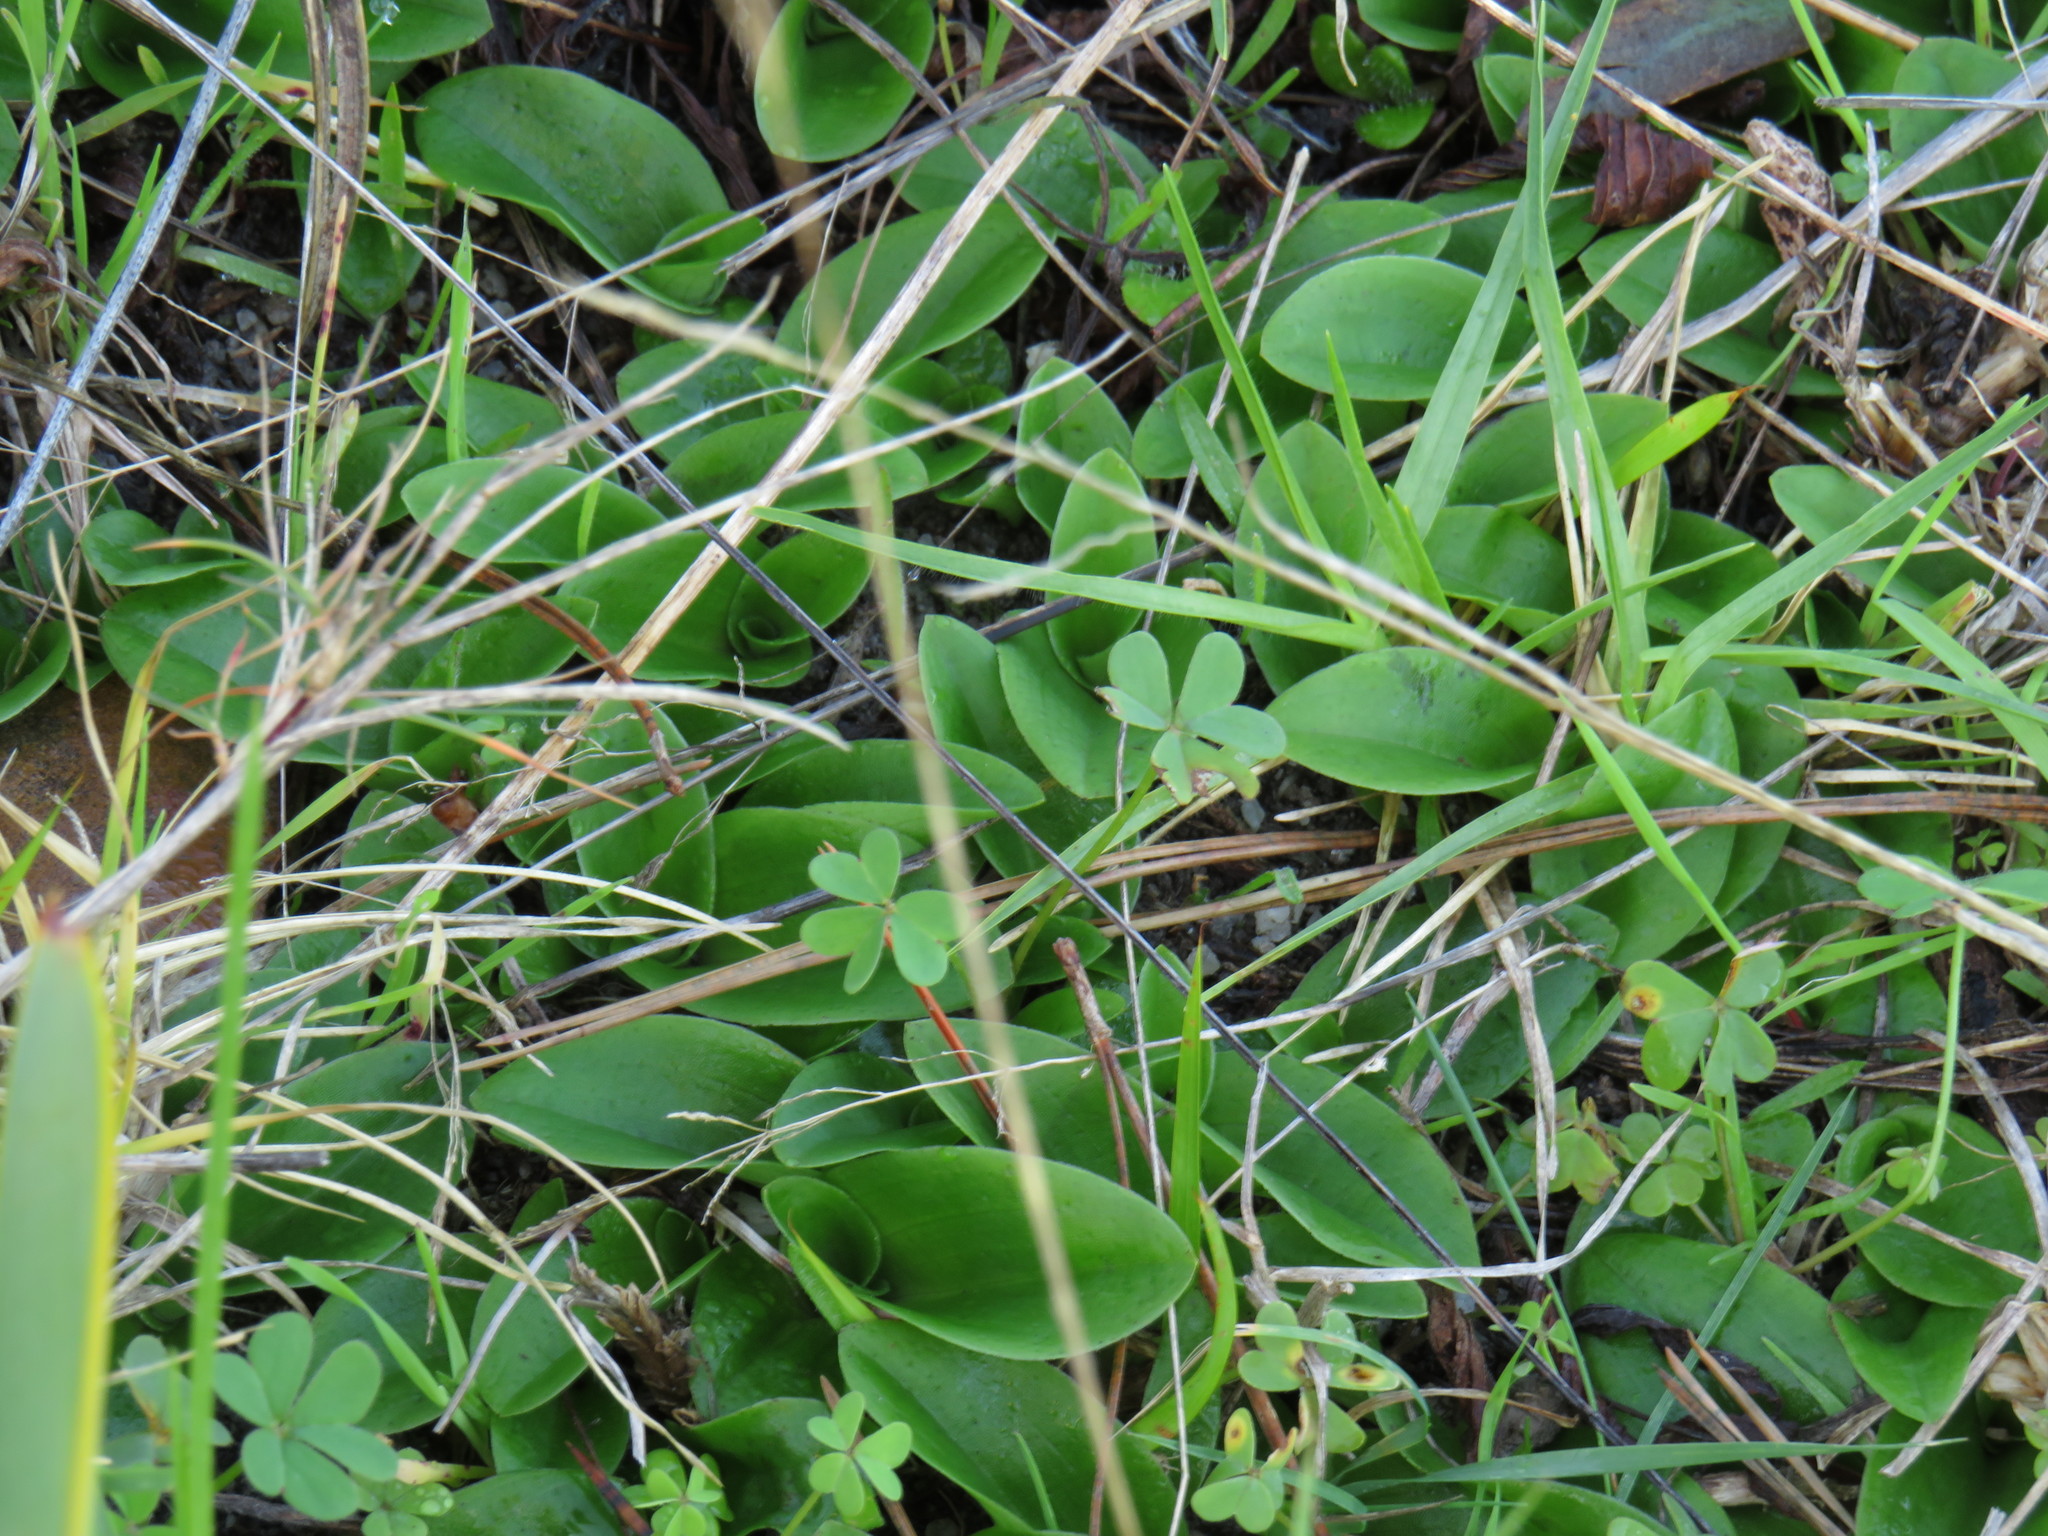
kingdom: Plantae
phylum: Tracheophyta
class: Liliopsida
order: Asparagales
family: Orchidaceae
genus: Satyrium
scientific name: Satyrium odorum
